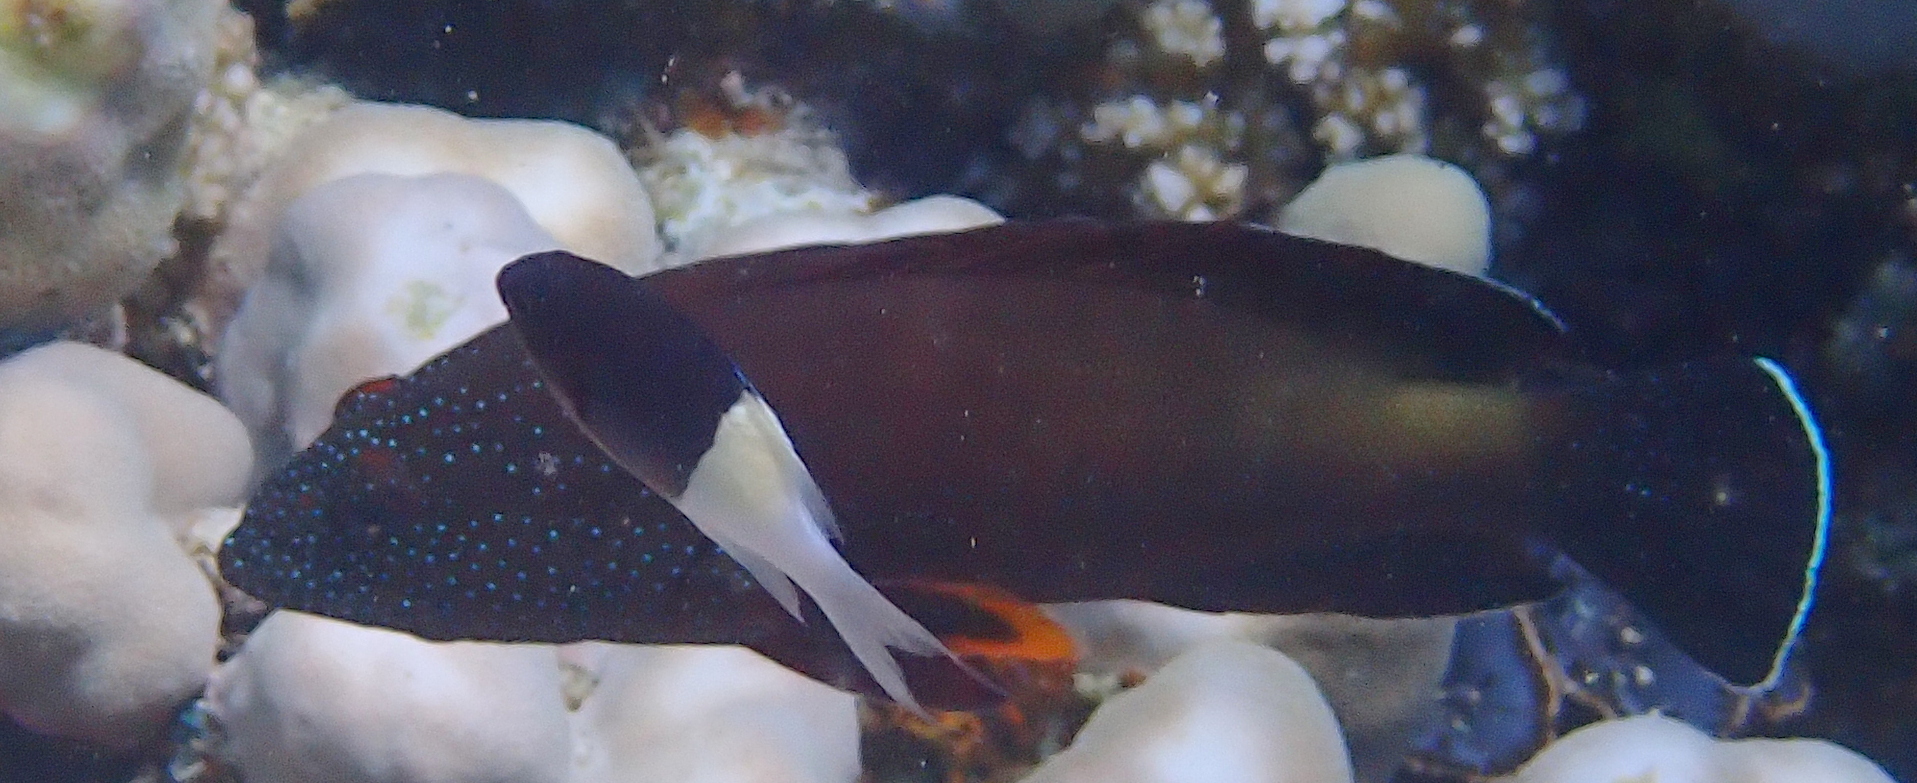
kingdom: Animalia
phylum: Chordata
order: Perciformes
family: Serranidae
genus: Cephalopholis
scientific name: Cephalopholis hemistiktos
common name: Halfspotted hind
